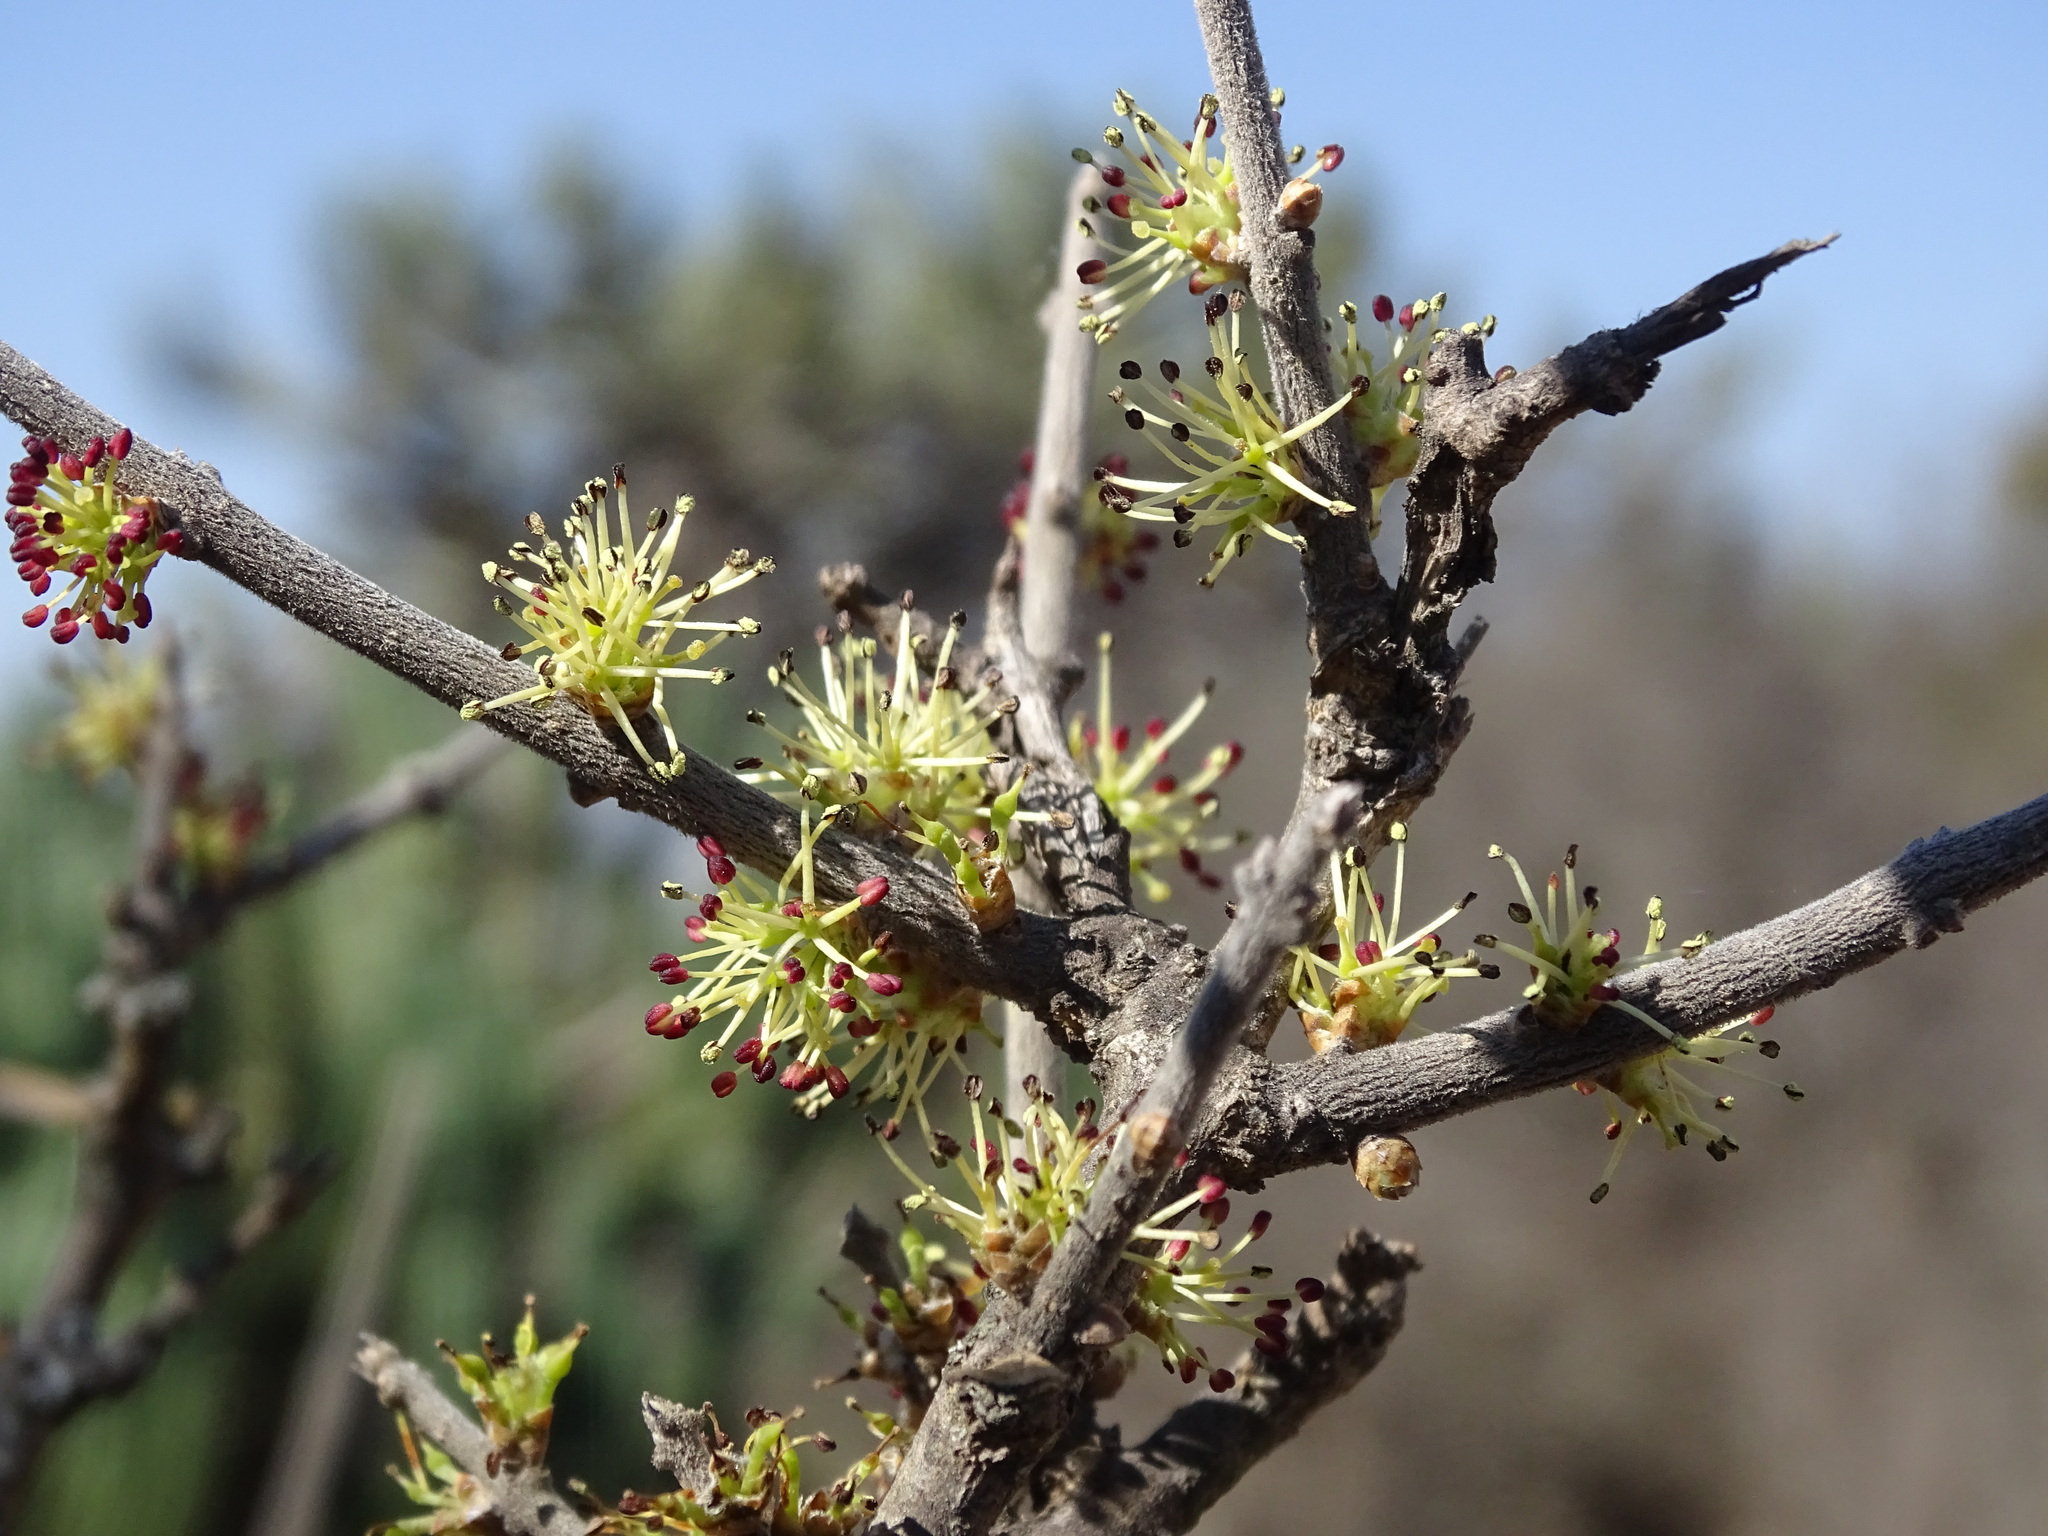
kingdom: Plantae
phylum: Tracheophyta
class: Magnoliopsida
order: Lamiales
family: Oleaceae
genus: Forestiera
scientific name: Forestiera phillyreoides
